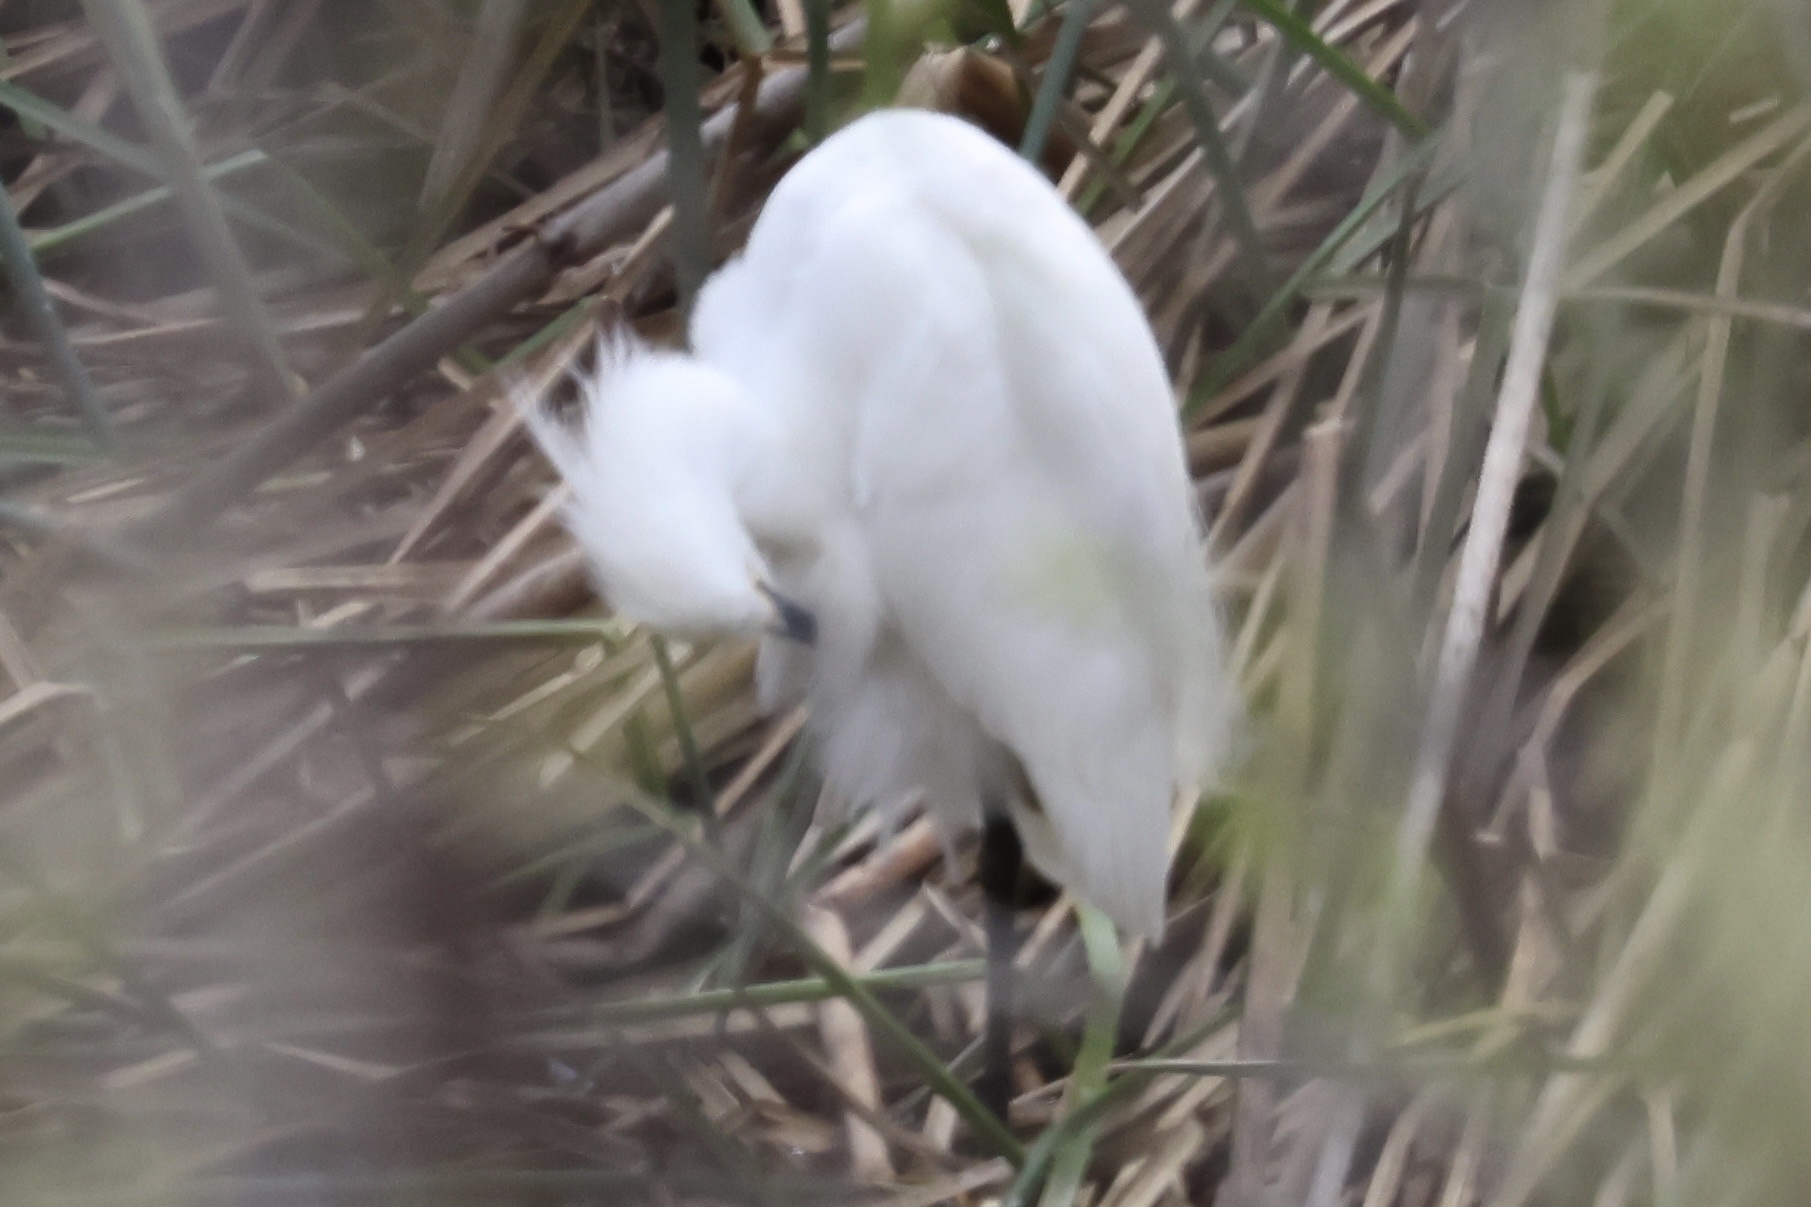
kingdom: Animalia
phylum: Chordata
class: Aves
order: Pelecaniformes
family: Ardeidae
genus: Egretta
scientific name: Egretta thula
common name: Snowy egret
